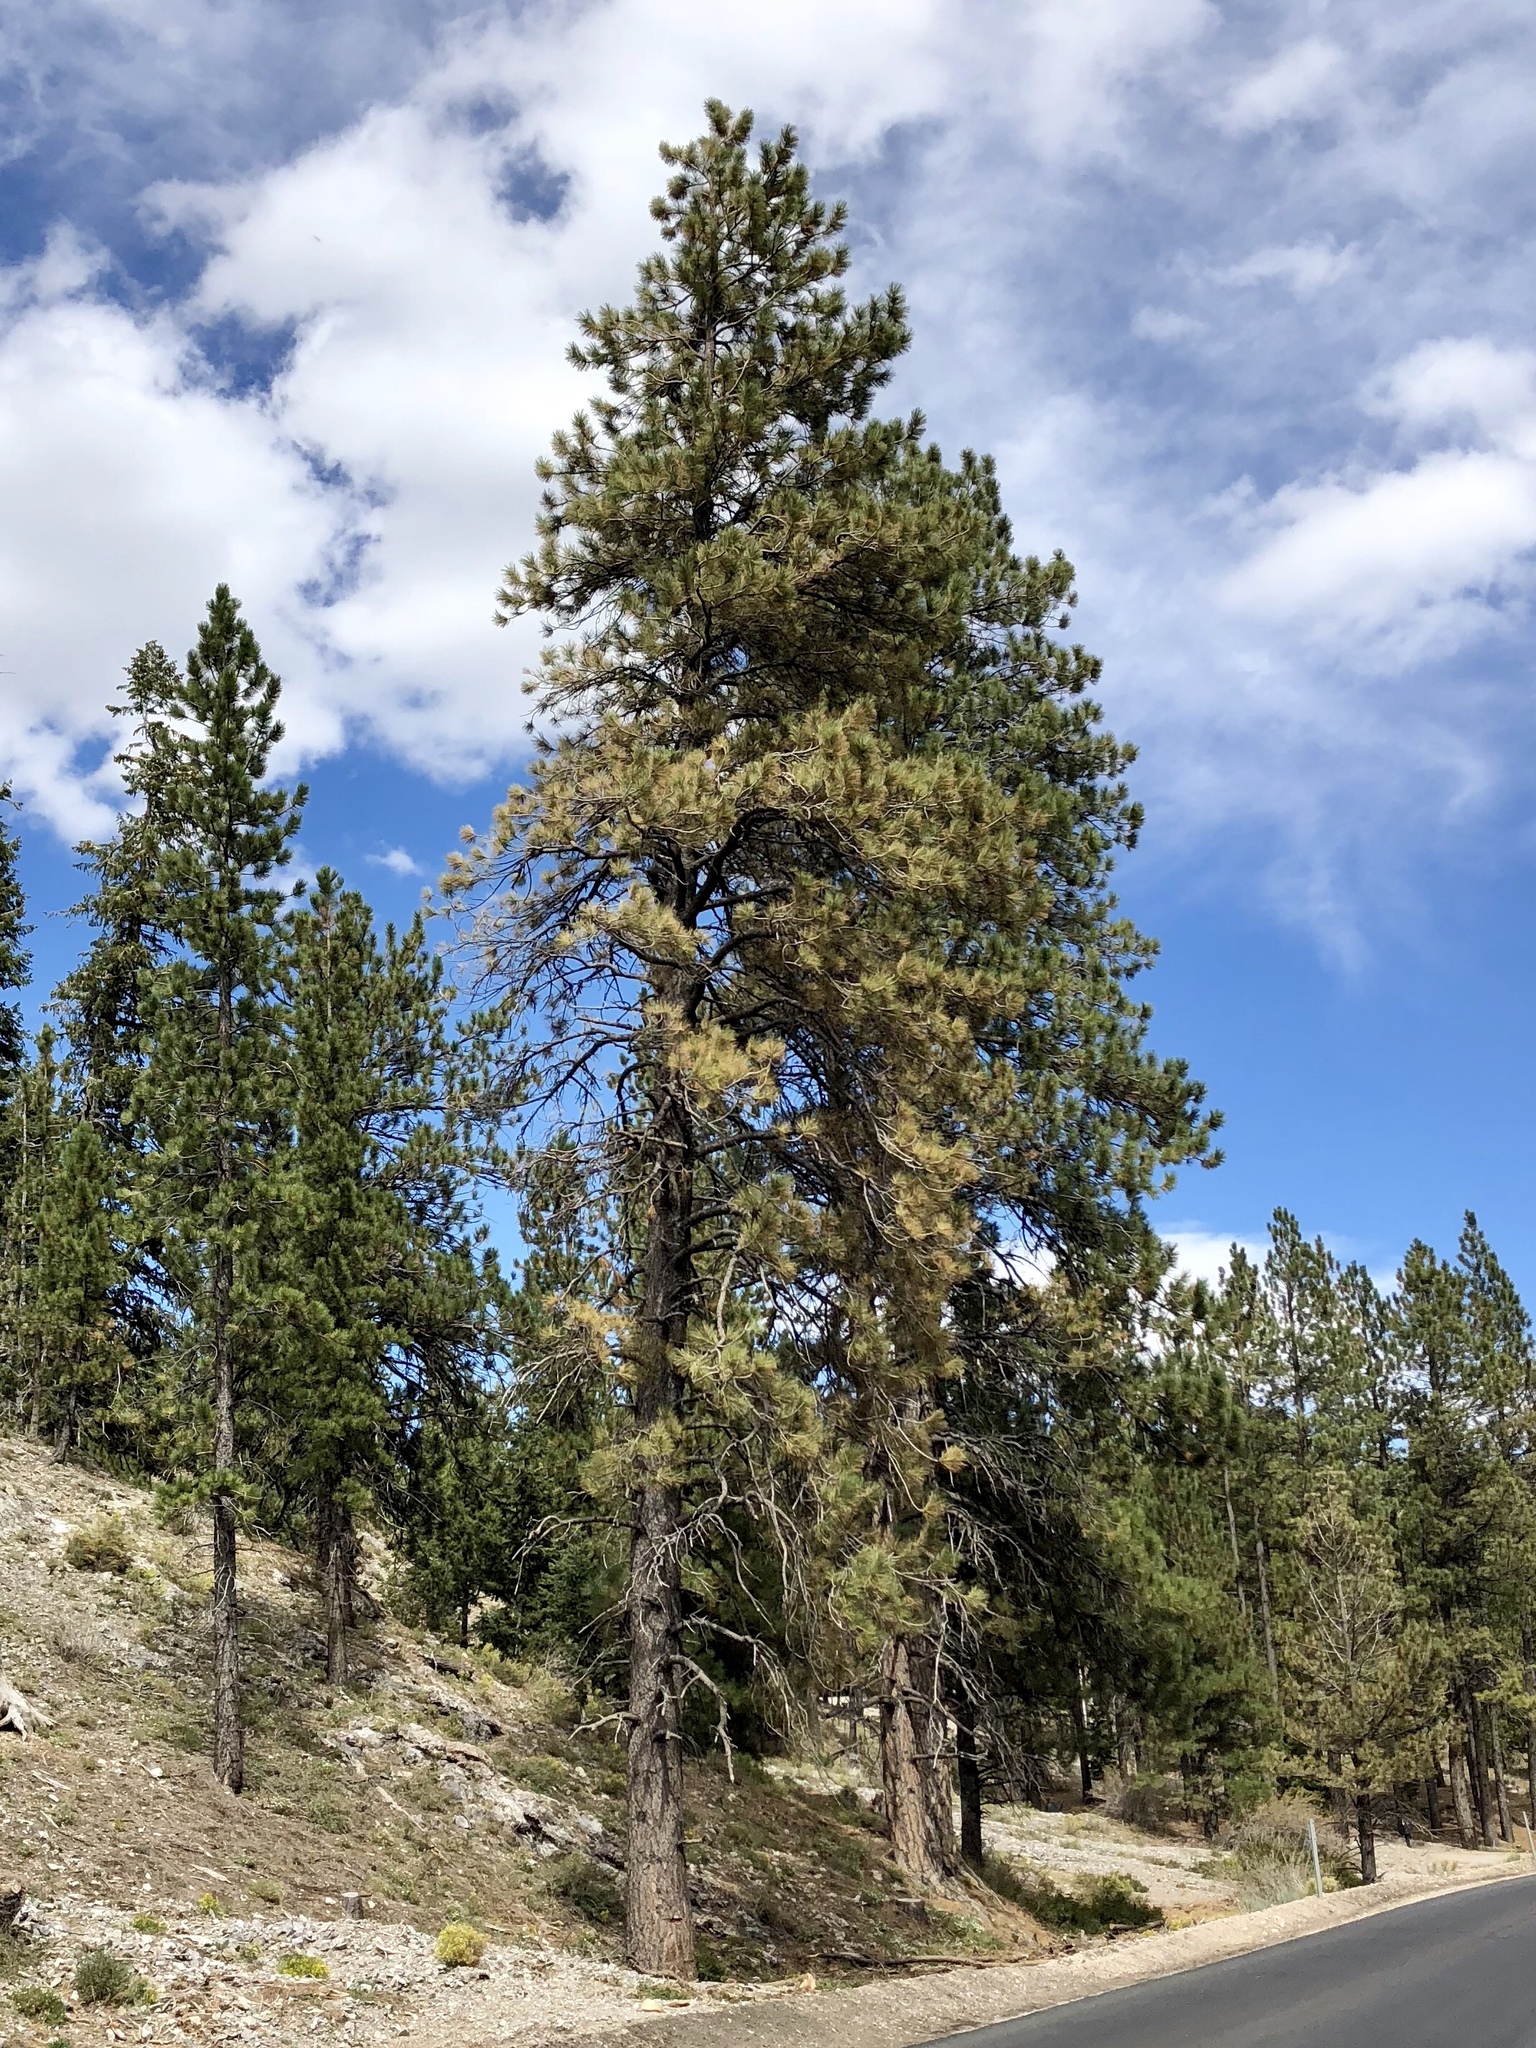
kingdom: Plantae
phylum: Tracheophyta
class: Pinopsida
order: Pinales
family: Pinaceae
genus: Pinus
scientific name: Pinus ponderosa
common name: Western yellow-pine
